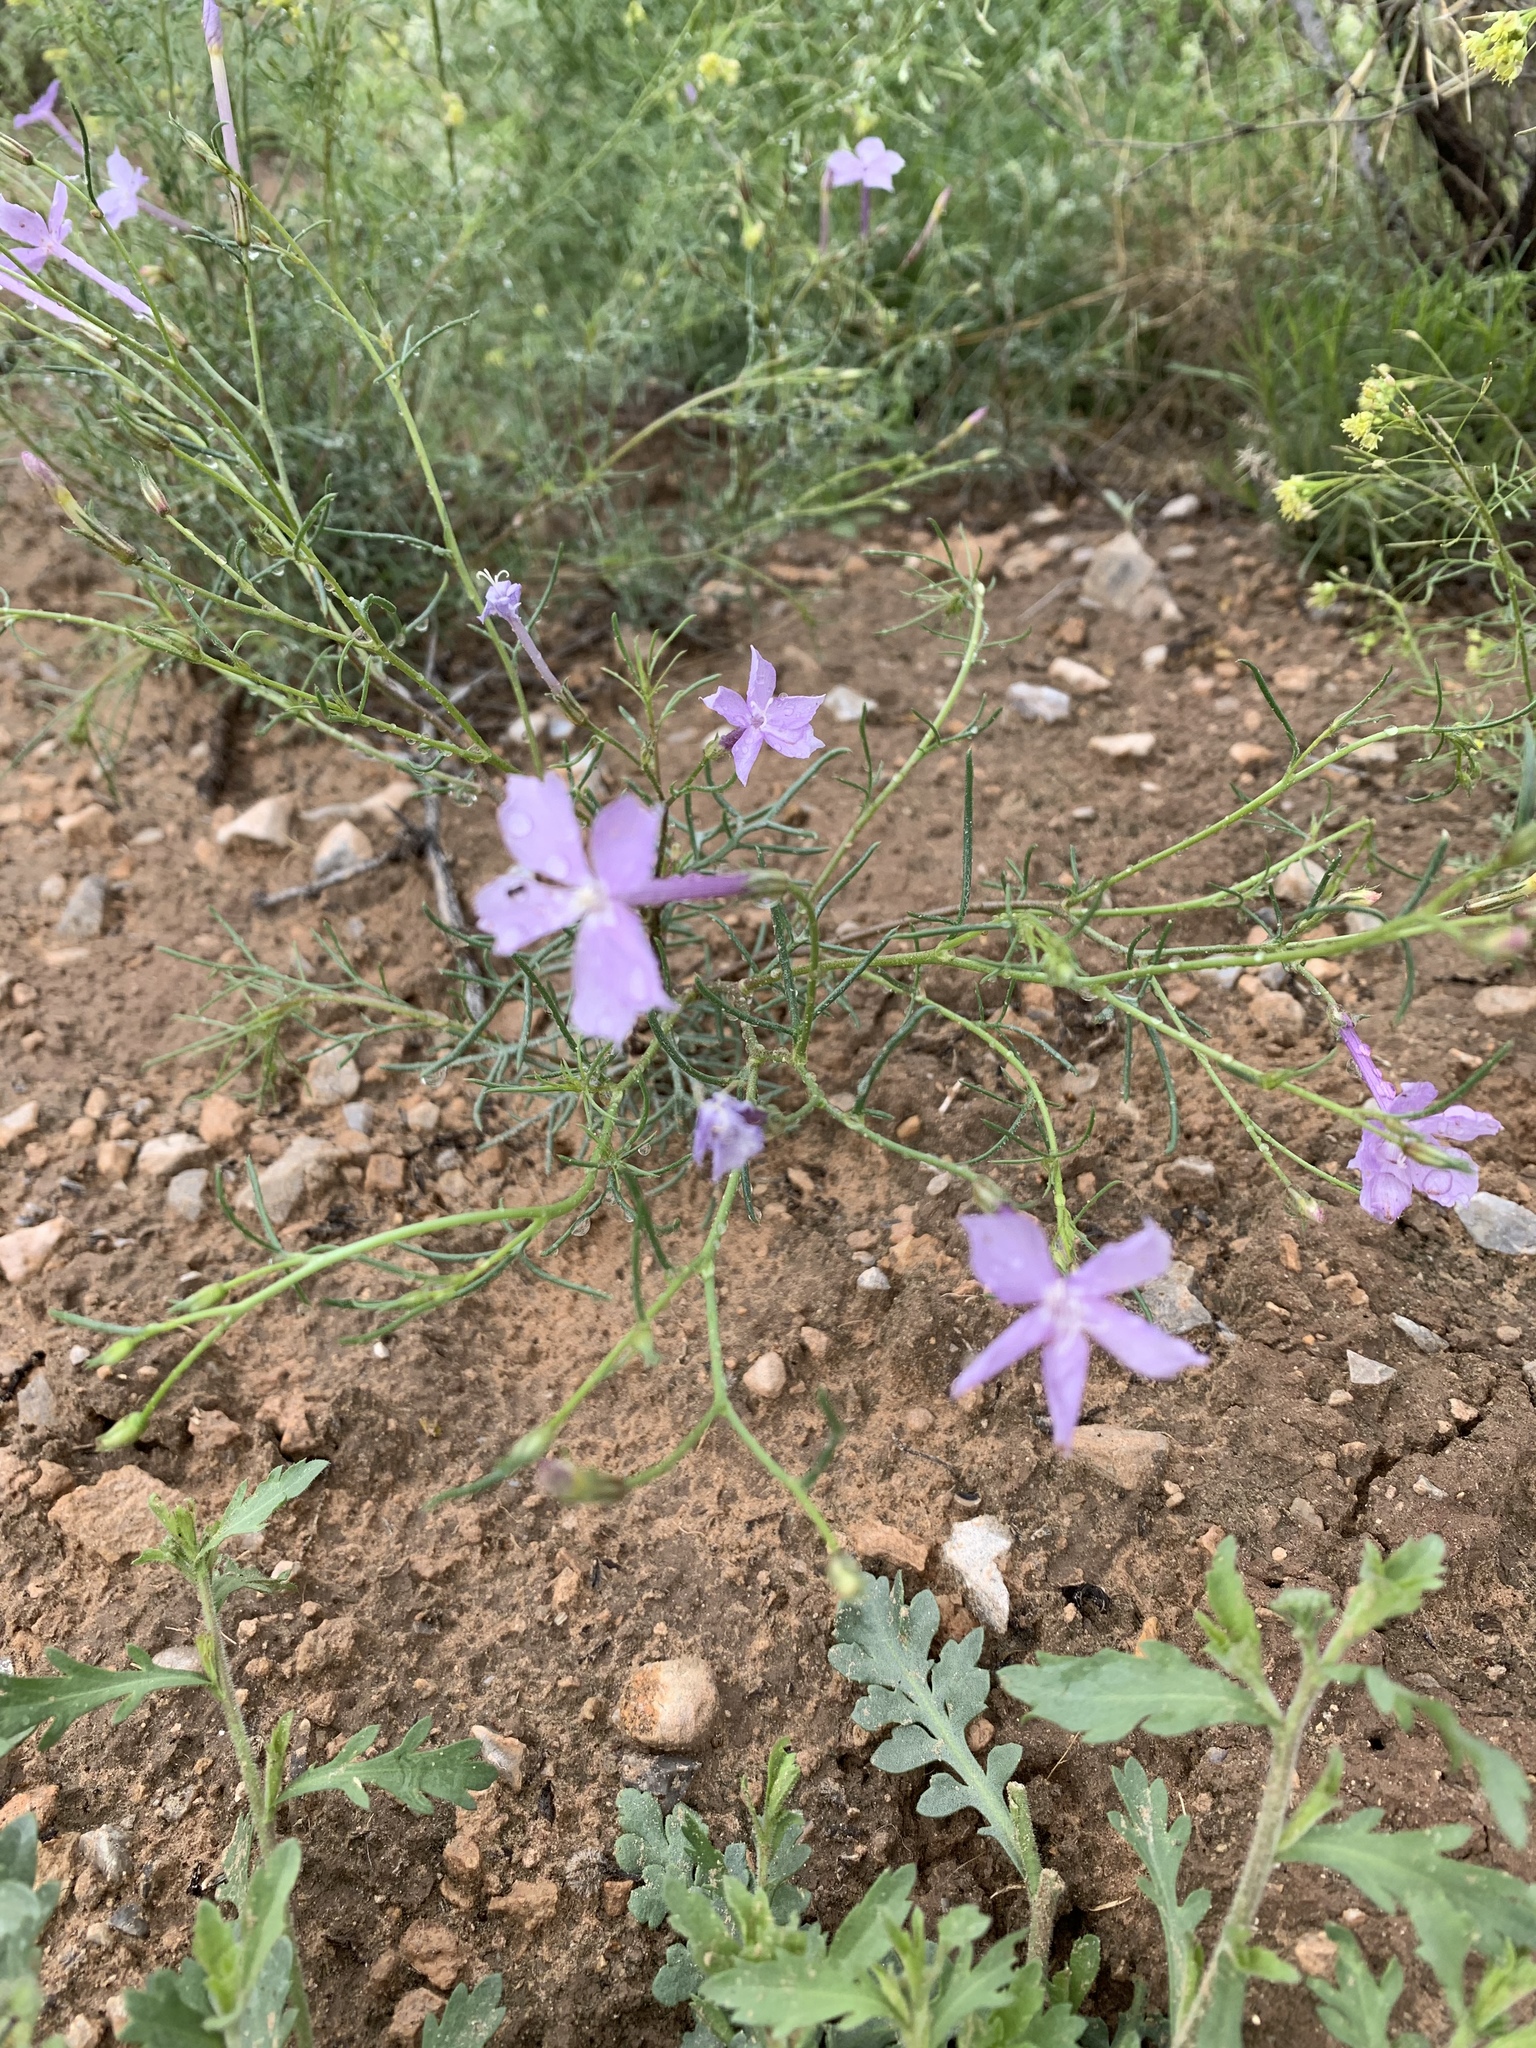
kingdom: Plantae
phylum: Tracheophyta
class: Magnoliopsida
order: Ericales
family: Polemoniaceae
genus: Ipomopsis
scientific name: Ipomopsis longiflora
